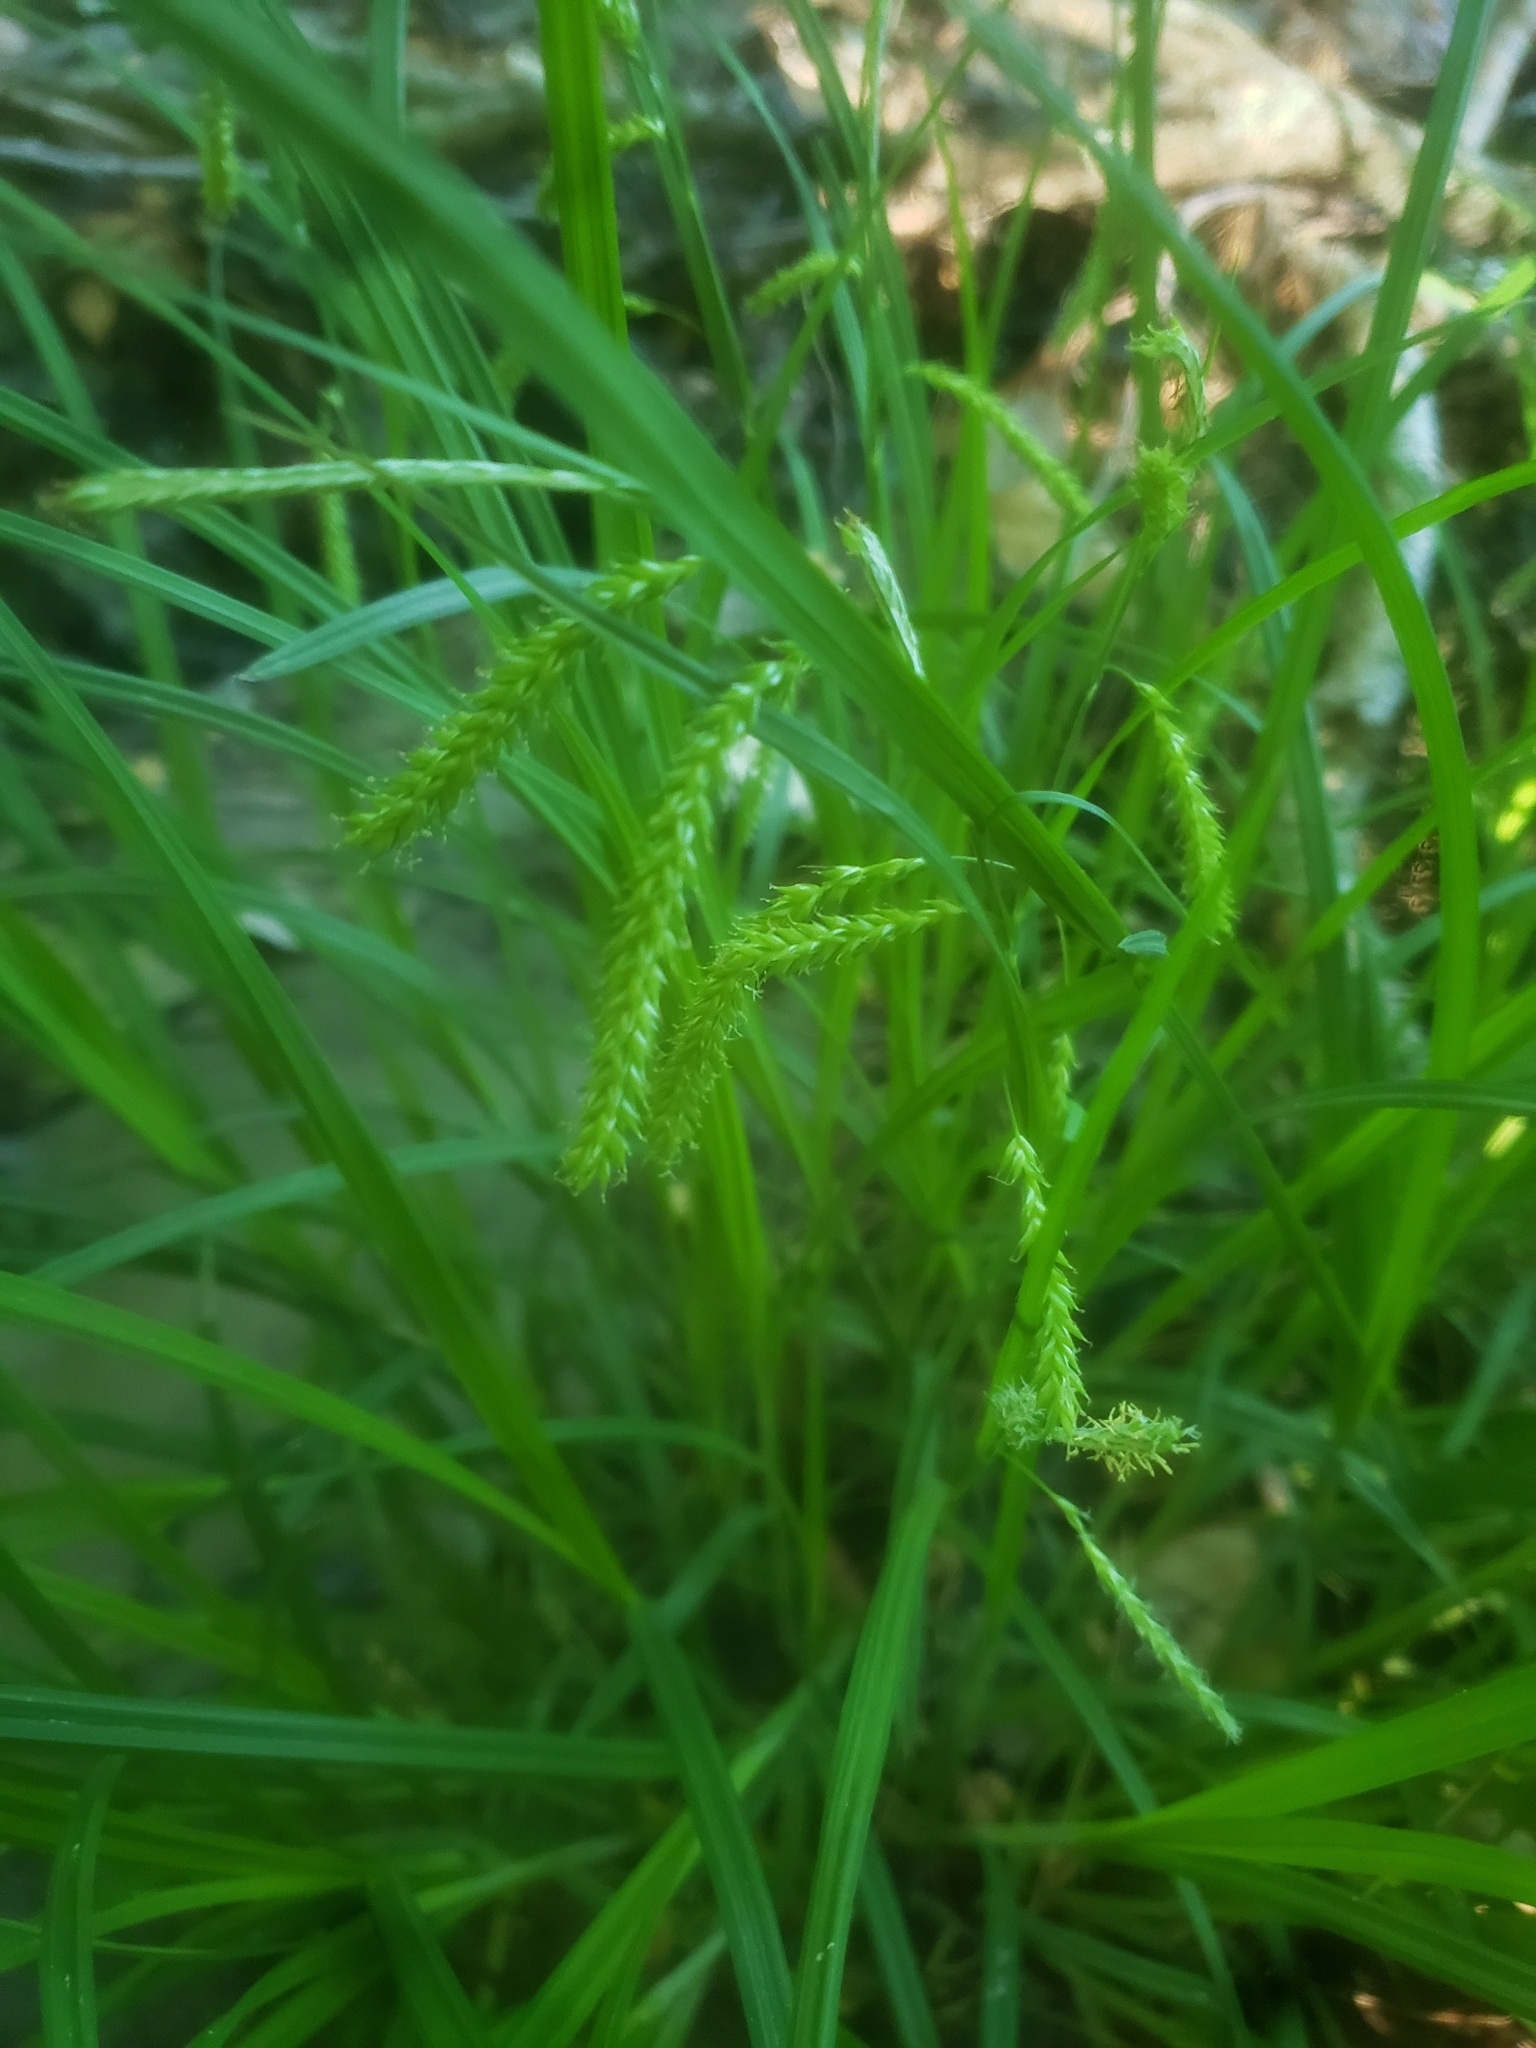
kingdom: Plantae
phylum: Tracheophyta
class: Liliopsida
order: Poales
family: Cyperaceae
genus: Carex
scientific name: Carex prasina
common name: Drooping sedge
